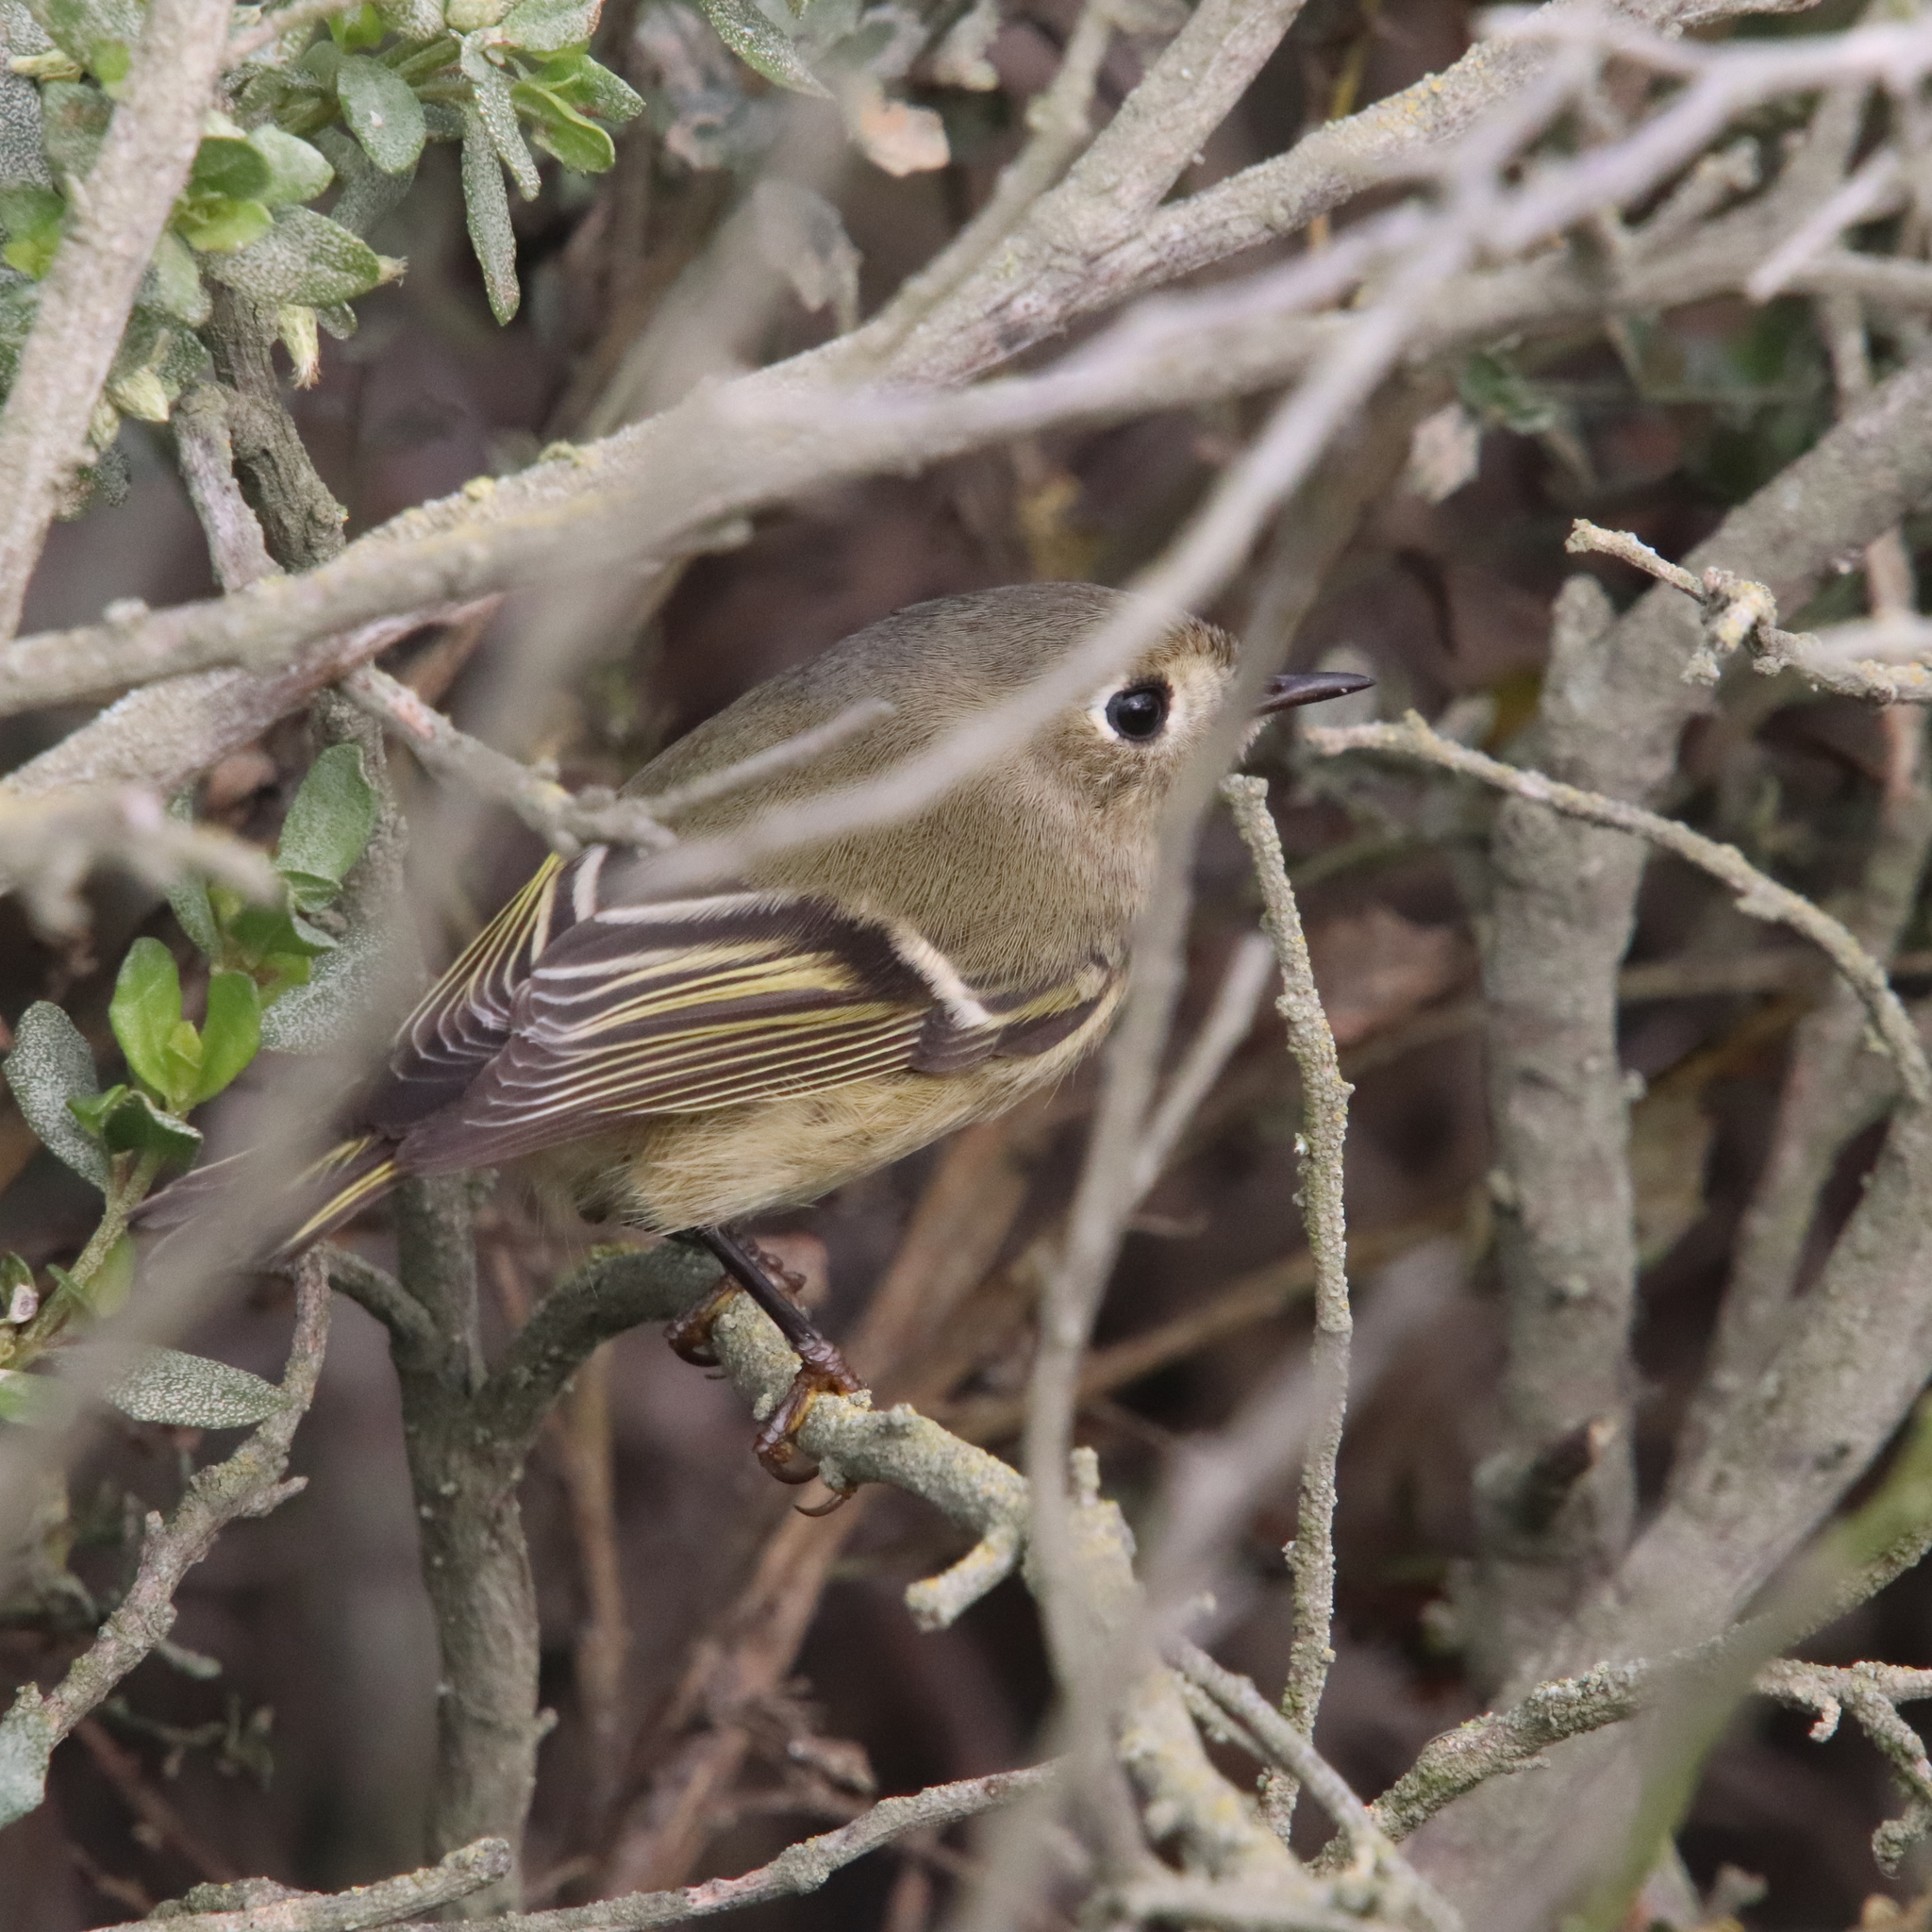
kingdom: Animalia
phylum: Chordata
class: Aves
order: Passeriformes
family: Regulidae
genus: Regulus
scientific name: Regulus calendula
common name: Ruby-crowned kinglet
